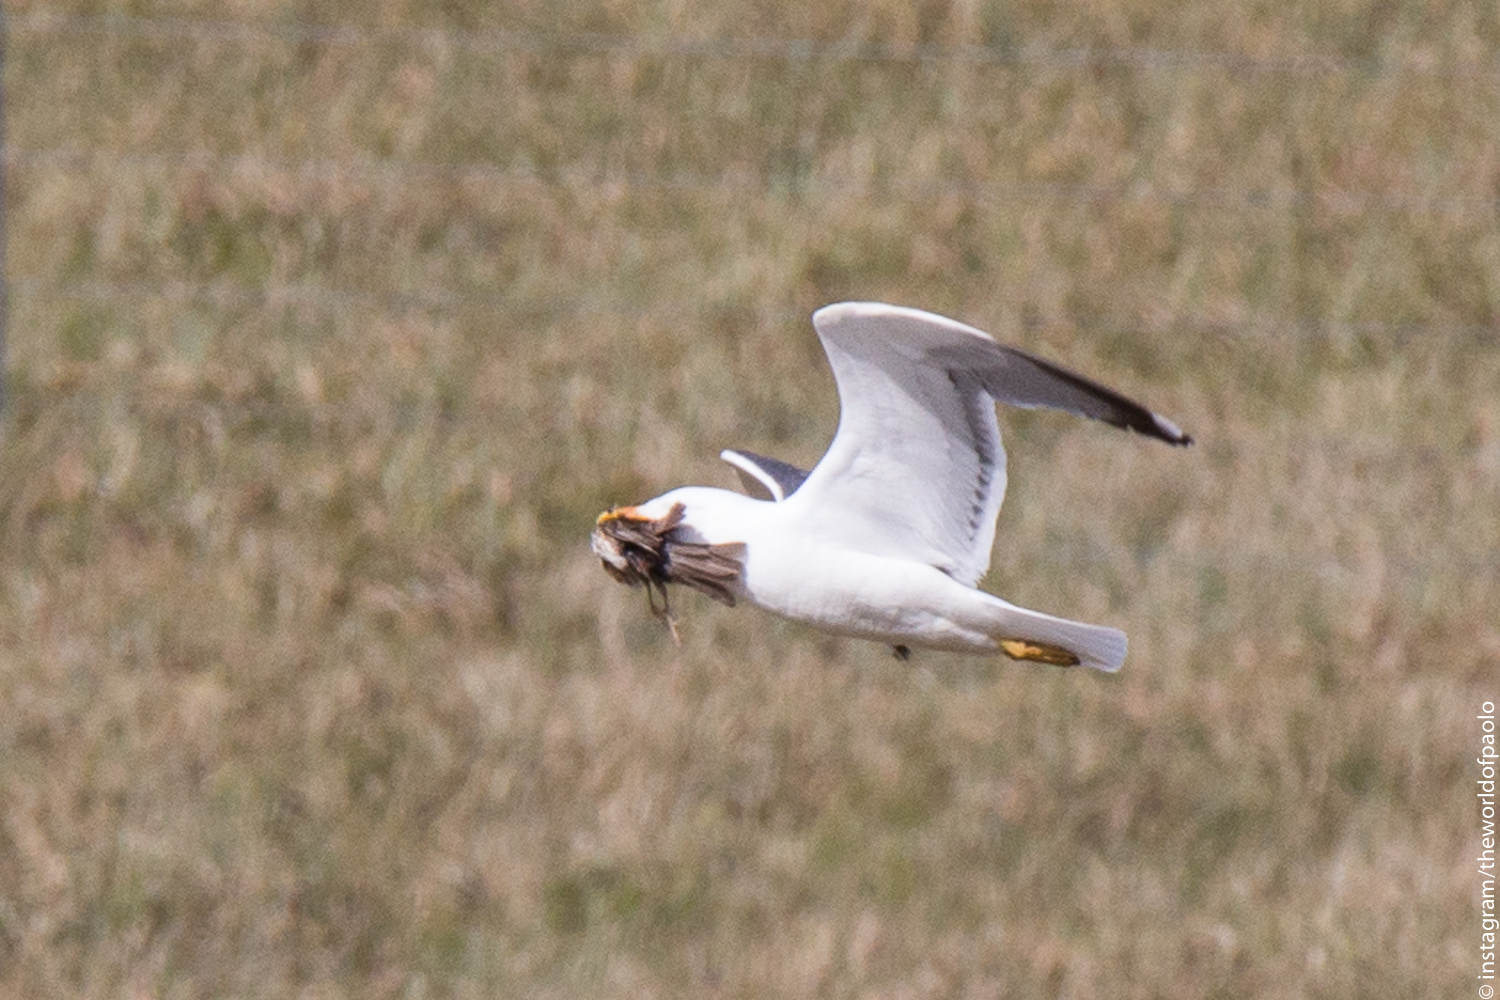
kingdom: Animalia
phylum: Chordata
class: Aves
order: Charadriiformes
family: Laridae
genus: Larus
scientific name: Larus fuscus
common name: Lesser black-backed gull
